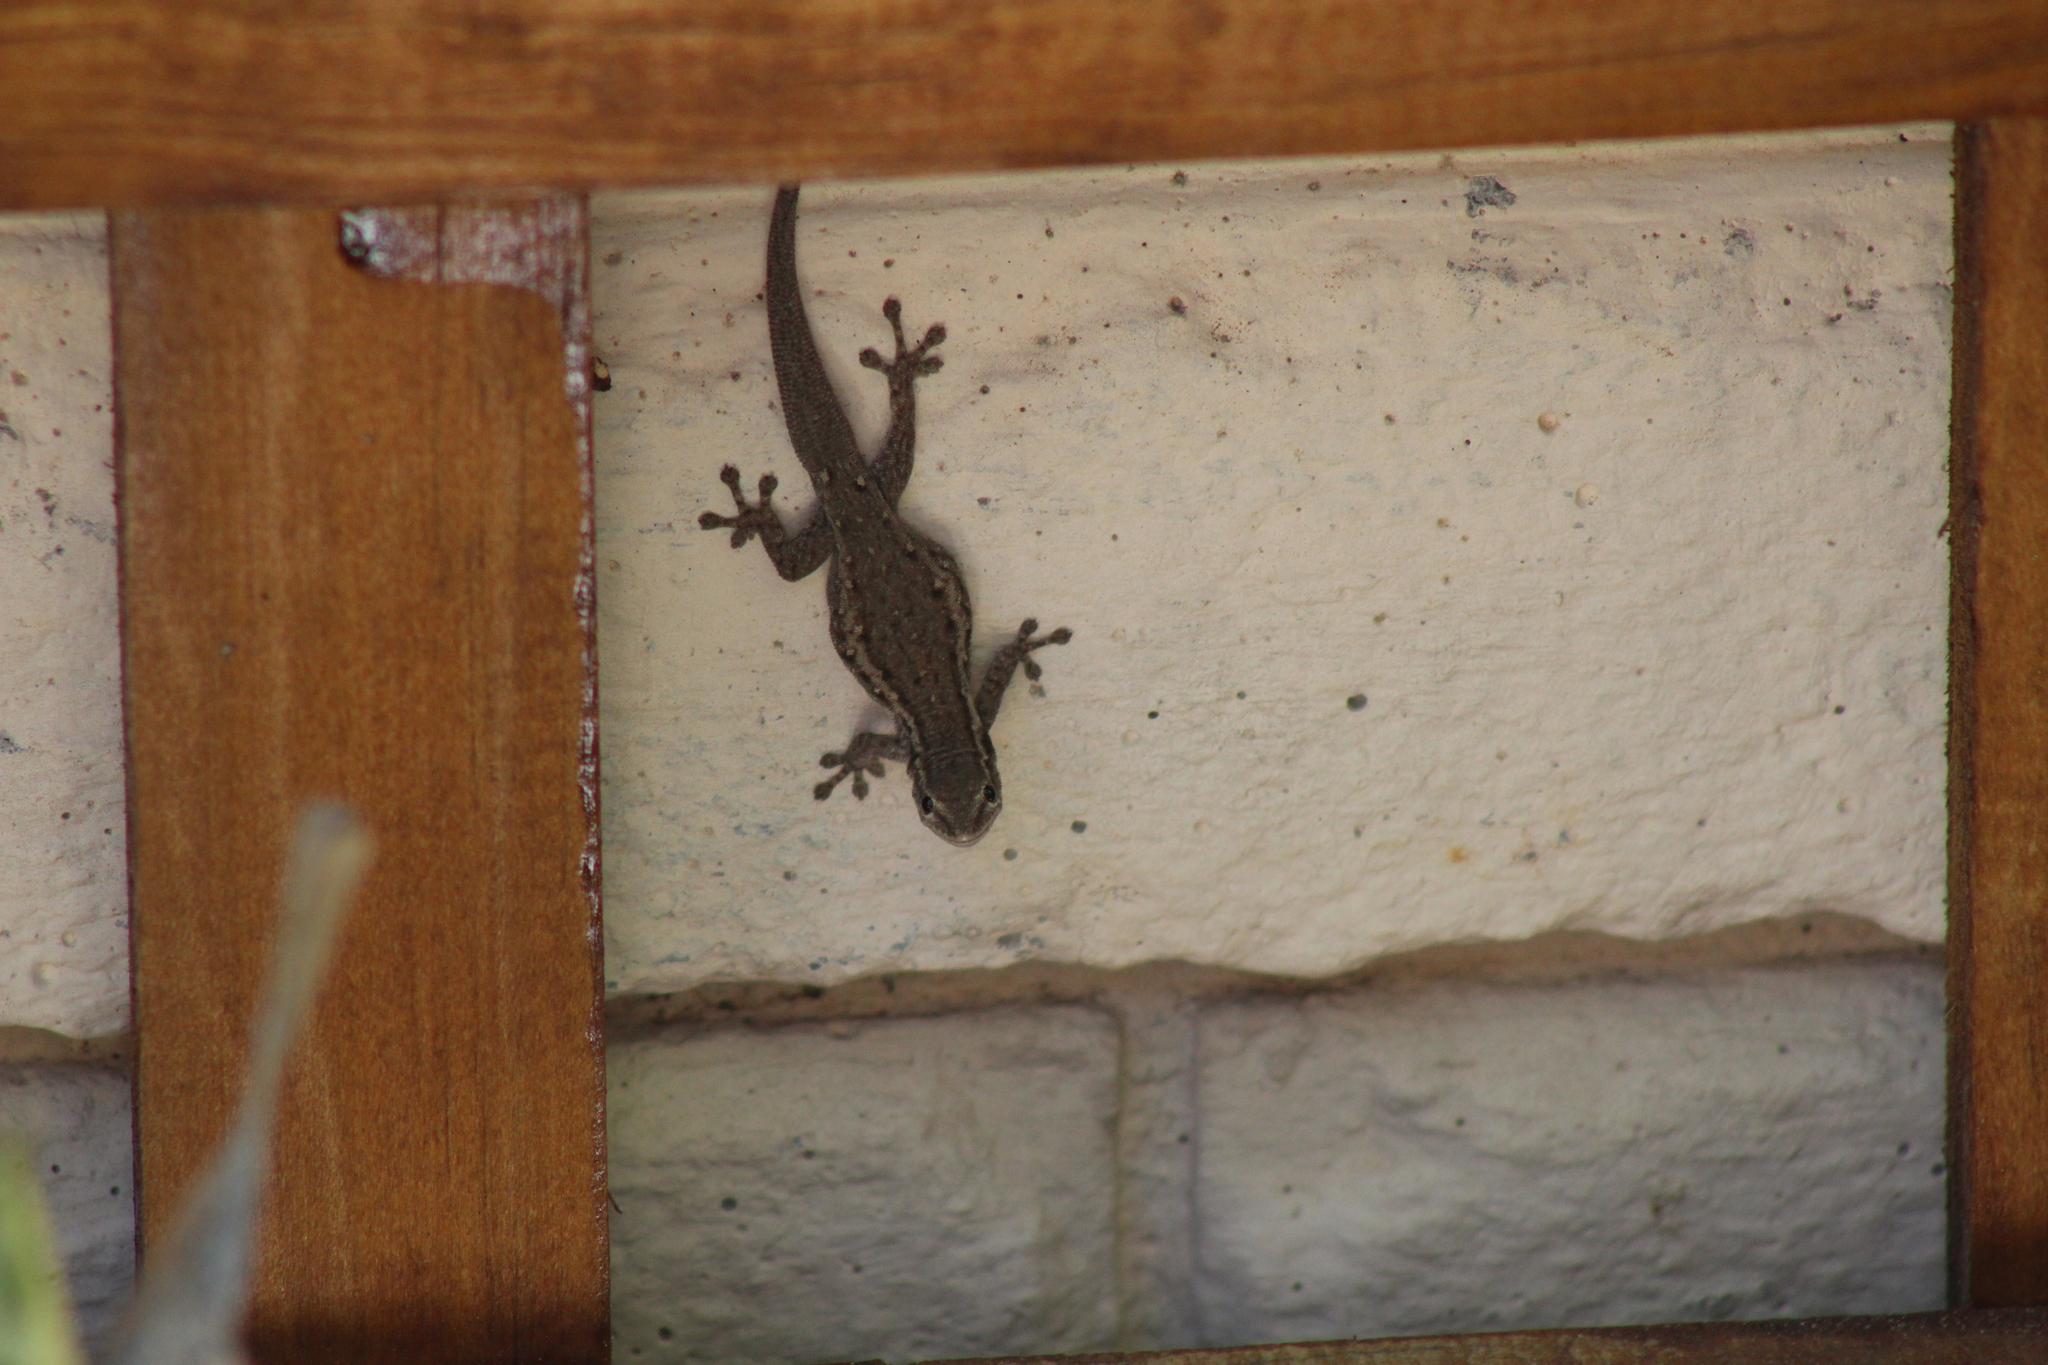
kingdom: Animalia
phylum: Chordata
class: Squamata
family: Gekkonidae
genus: Lygodactylus
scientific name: Lygodactylus capensis
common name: Cape dwarf gecko
